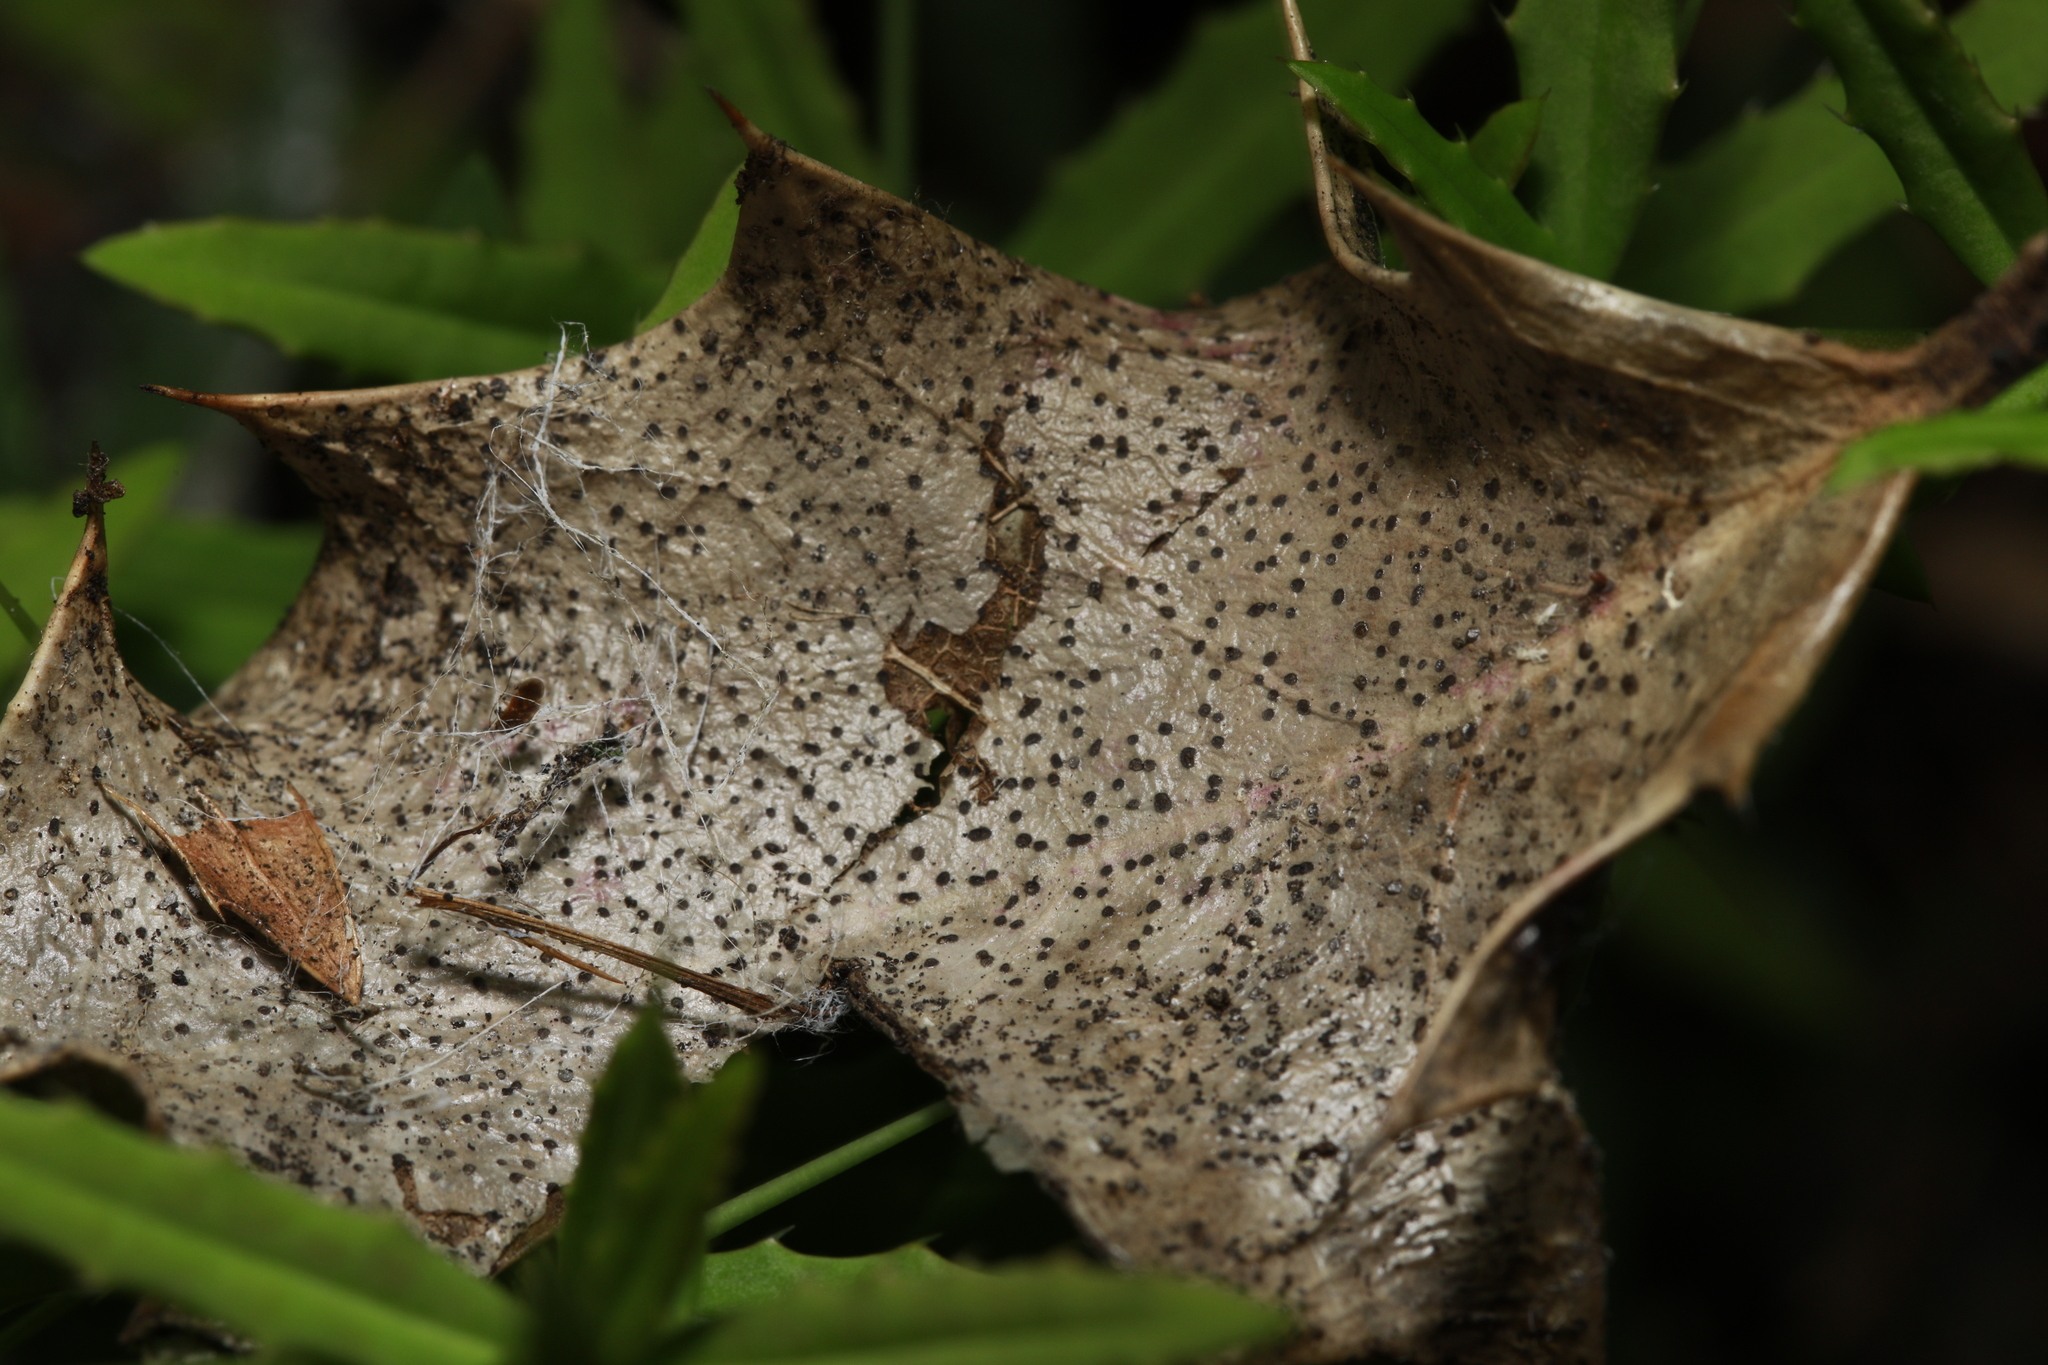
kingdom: Fungi
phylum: Ascomycota
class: Sordariomycetes
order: Diaporthales
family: Diaporthaceae
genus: Diaporthe
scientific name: Diaporthe crustosa
